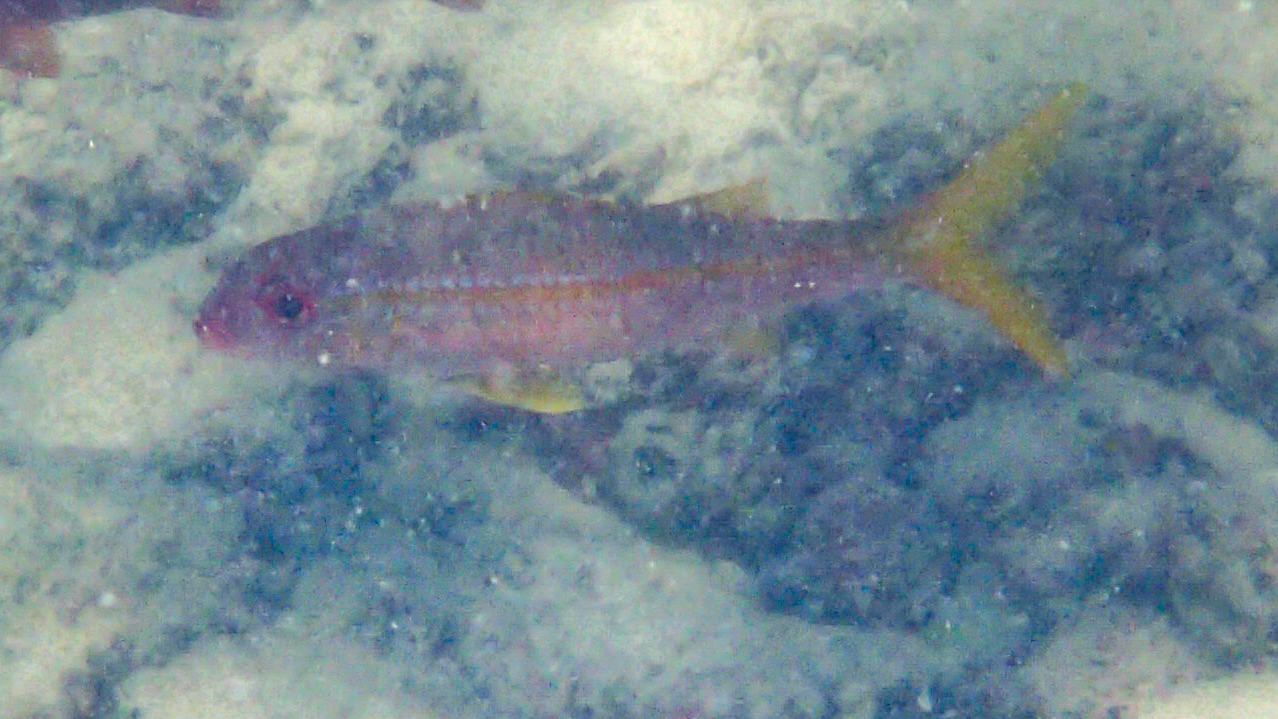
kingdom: Animalia
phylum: Chordata
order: Perciformes
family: Mullidae
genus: Mulloidichthys
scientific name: Mulloidichthys vanicolensis
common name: Yellowfin goatfish
